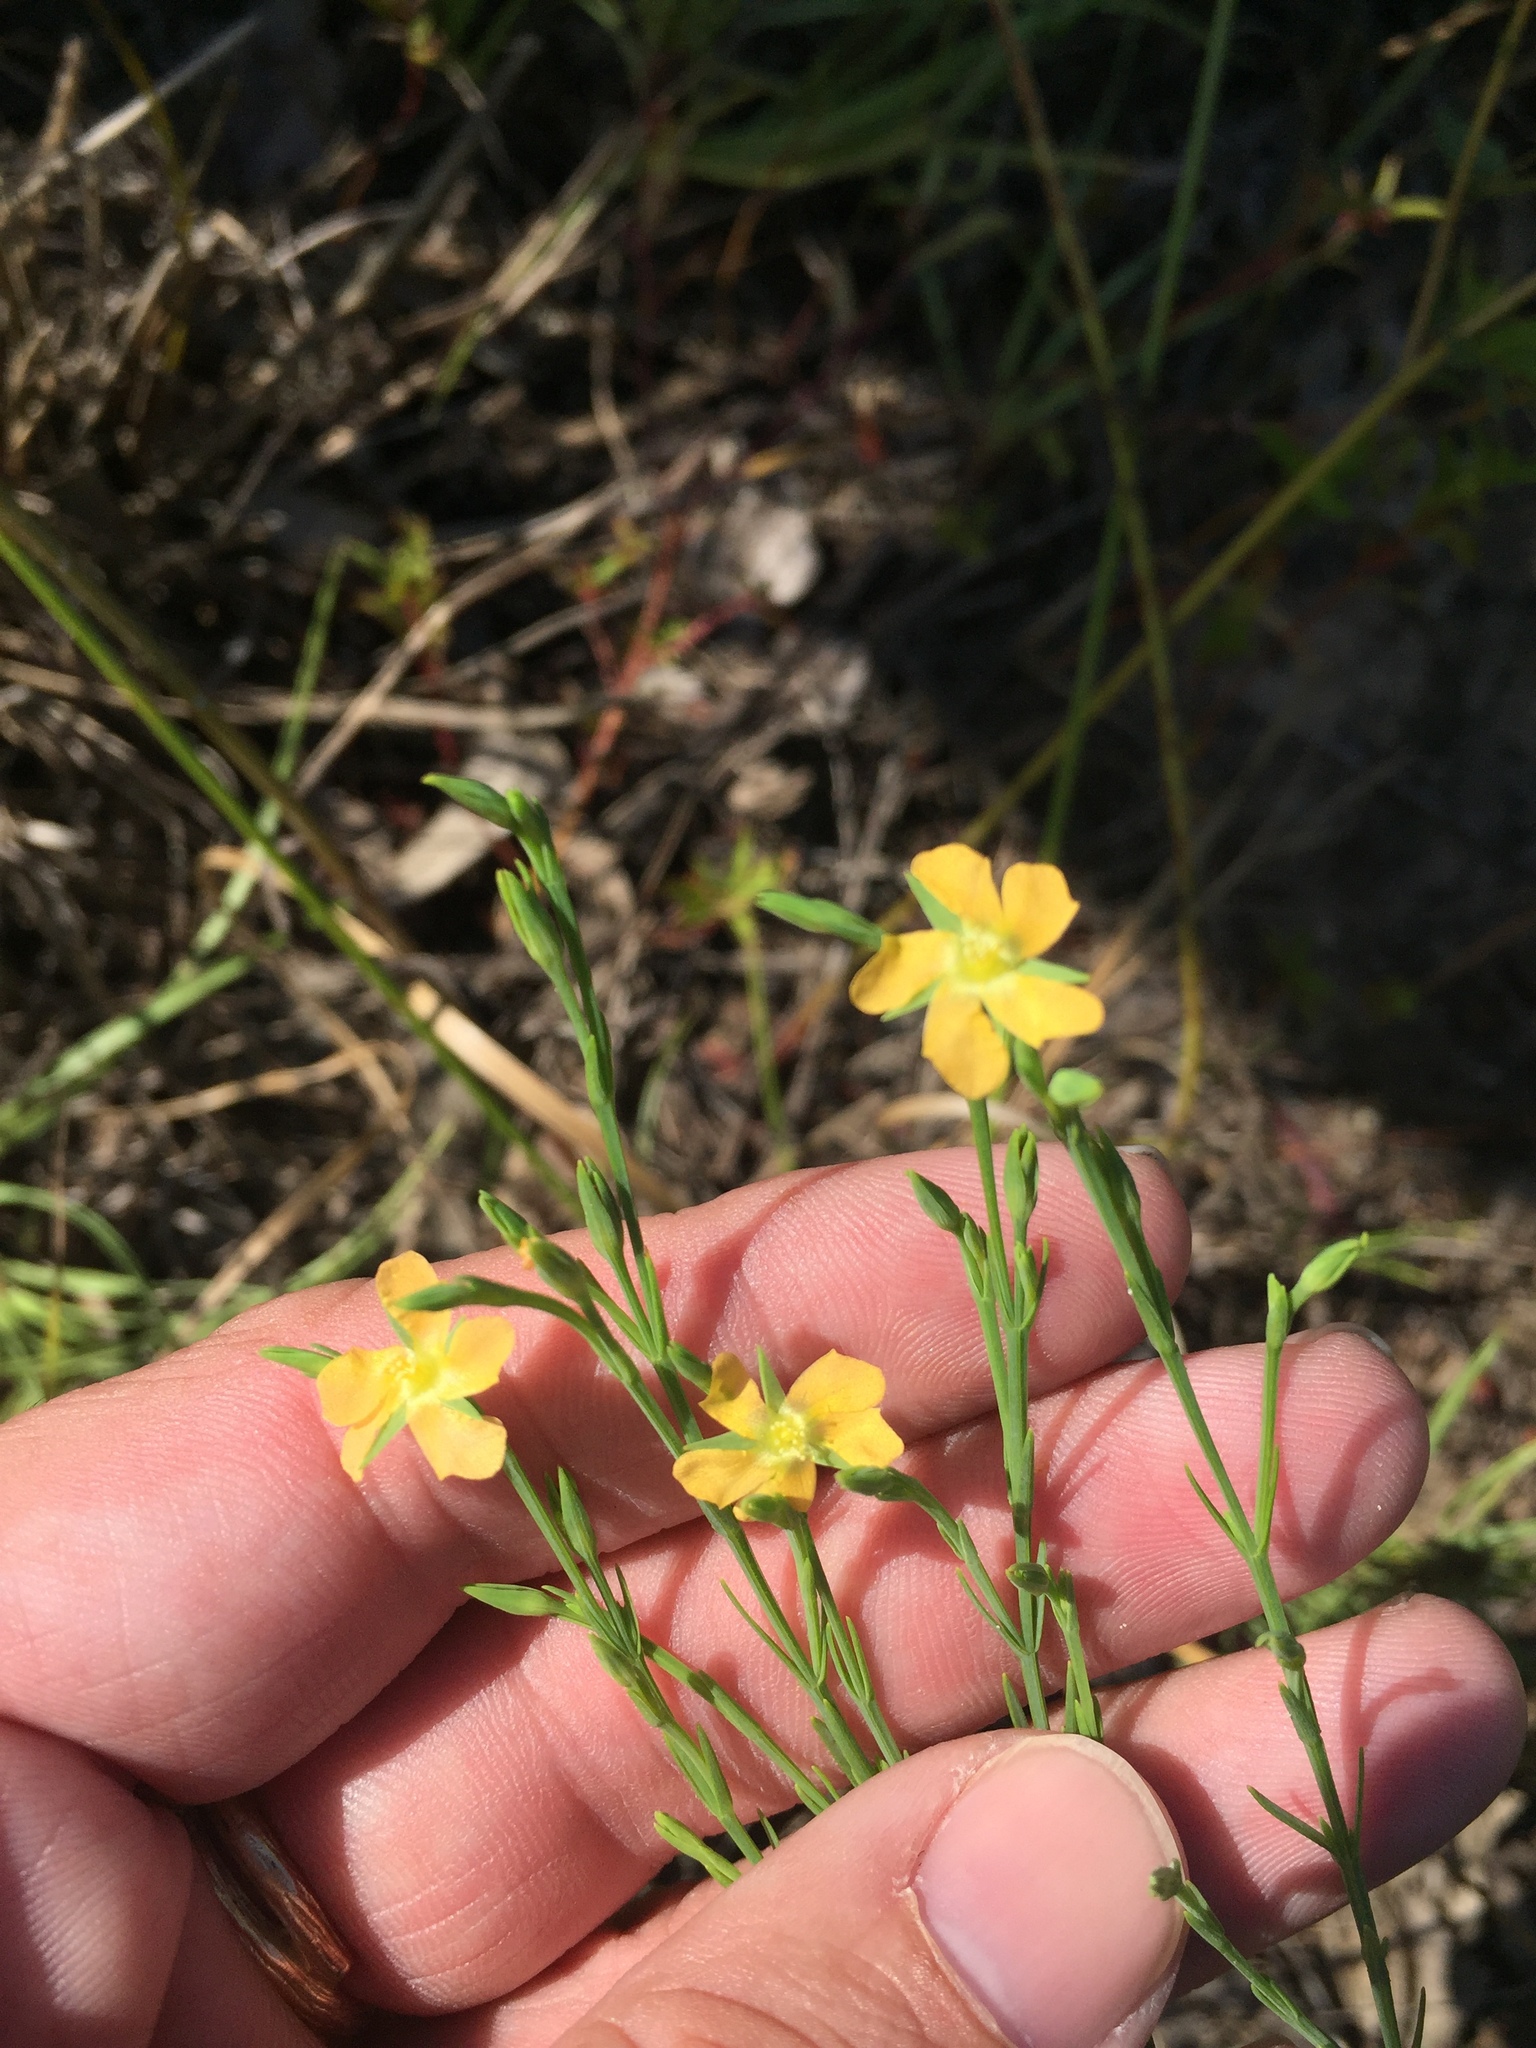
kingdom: Plantae
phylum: Tracheophyta
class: Magnoliopsida
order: Malpighiales
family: Hypericaceae
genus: Hypericum
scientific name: Hypericum drummondii
